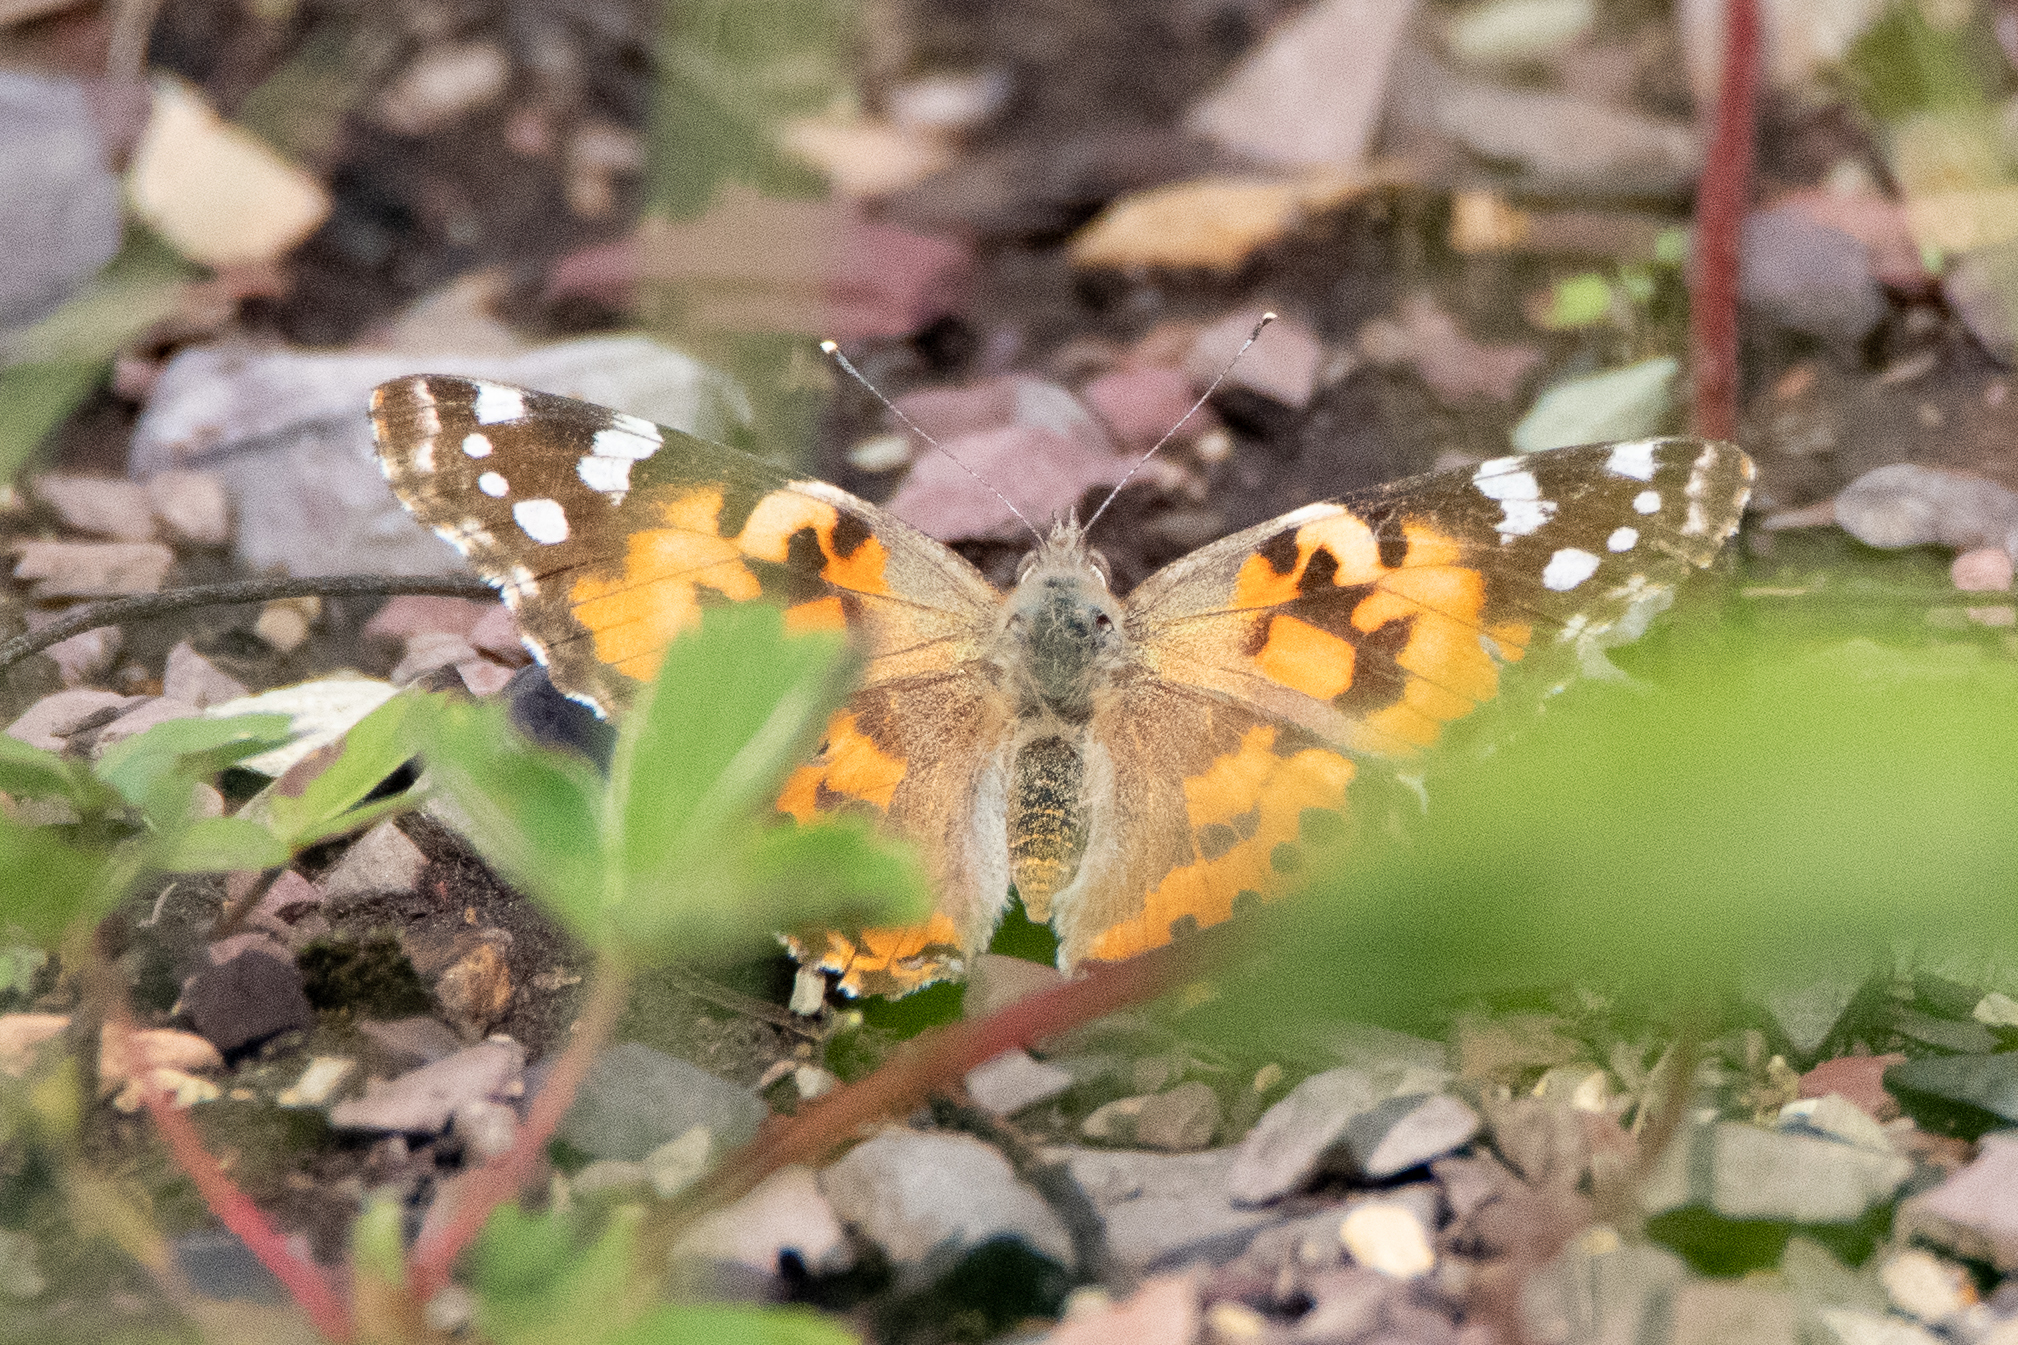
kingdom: Animalia
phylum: Arthropoda
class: Insecta
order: Lepidoptera
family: Nymphalidae
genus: Vanessa
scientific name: Vanessa cardui
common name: Painted lady
